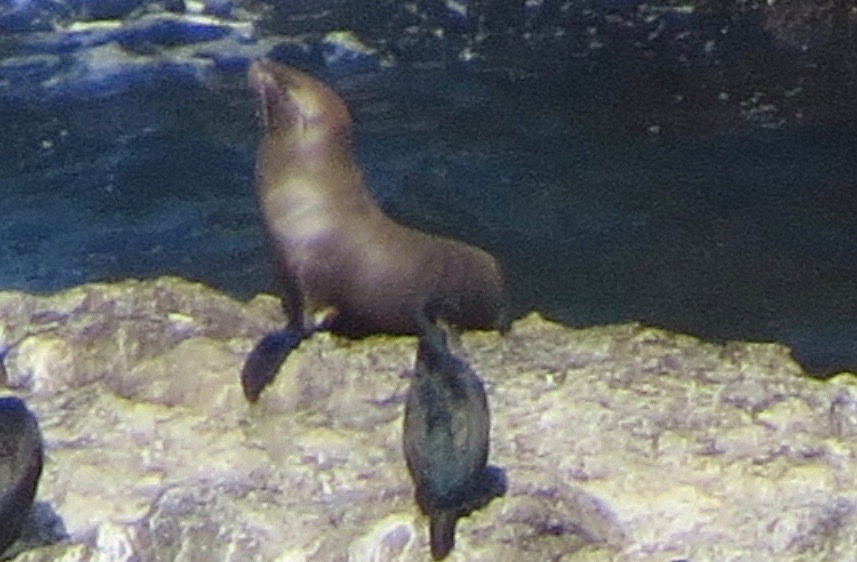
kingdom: Animalia
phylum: Chordata
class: Mammalia
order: Carnivora
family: Otariidae
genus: Zalophus
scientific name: Zalophus californianus
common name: California sea lion
